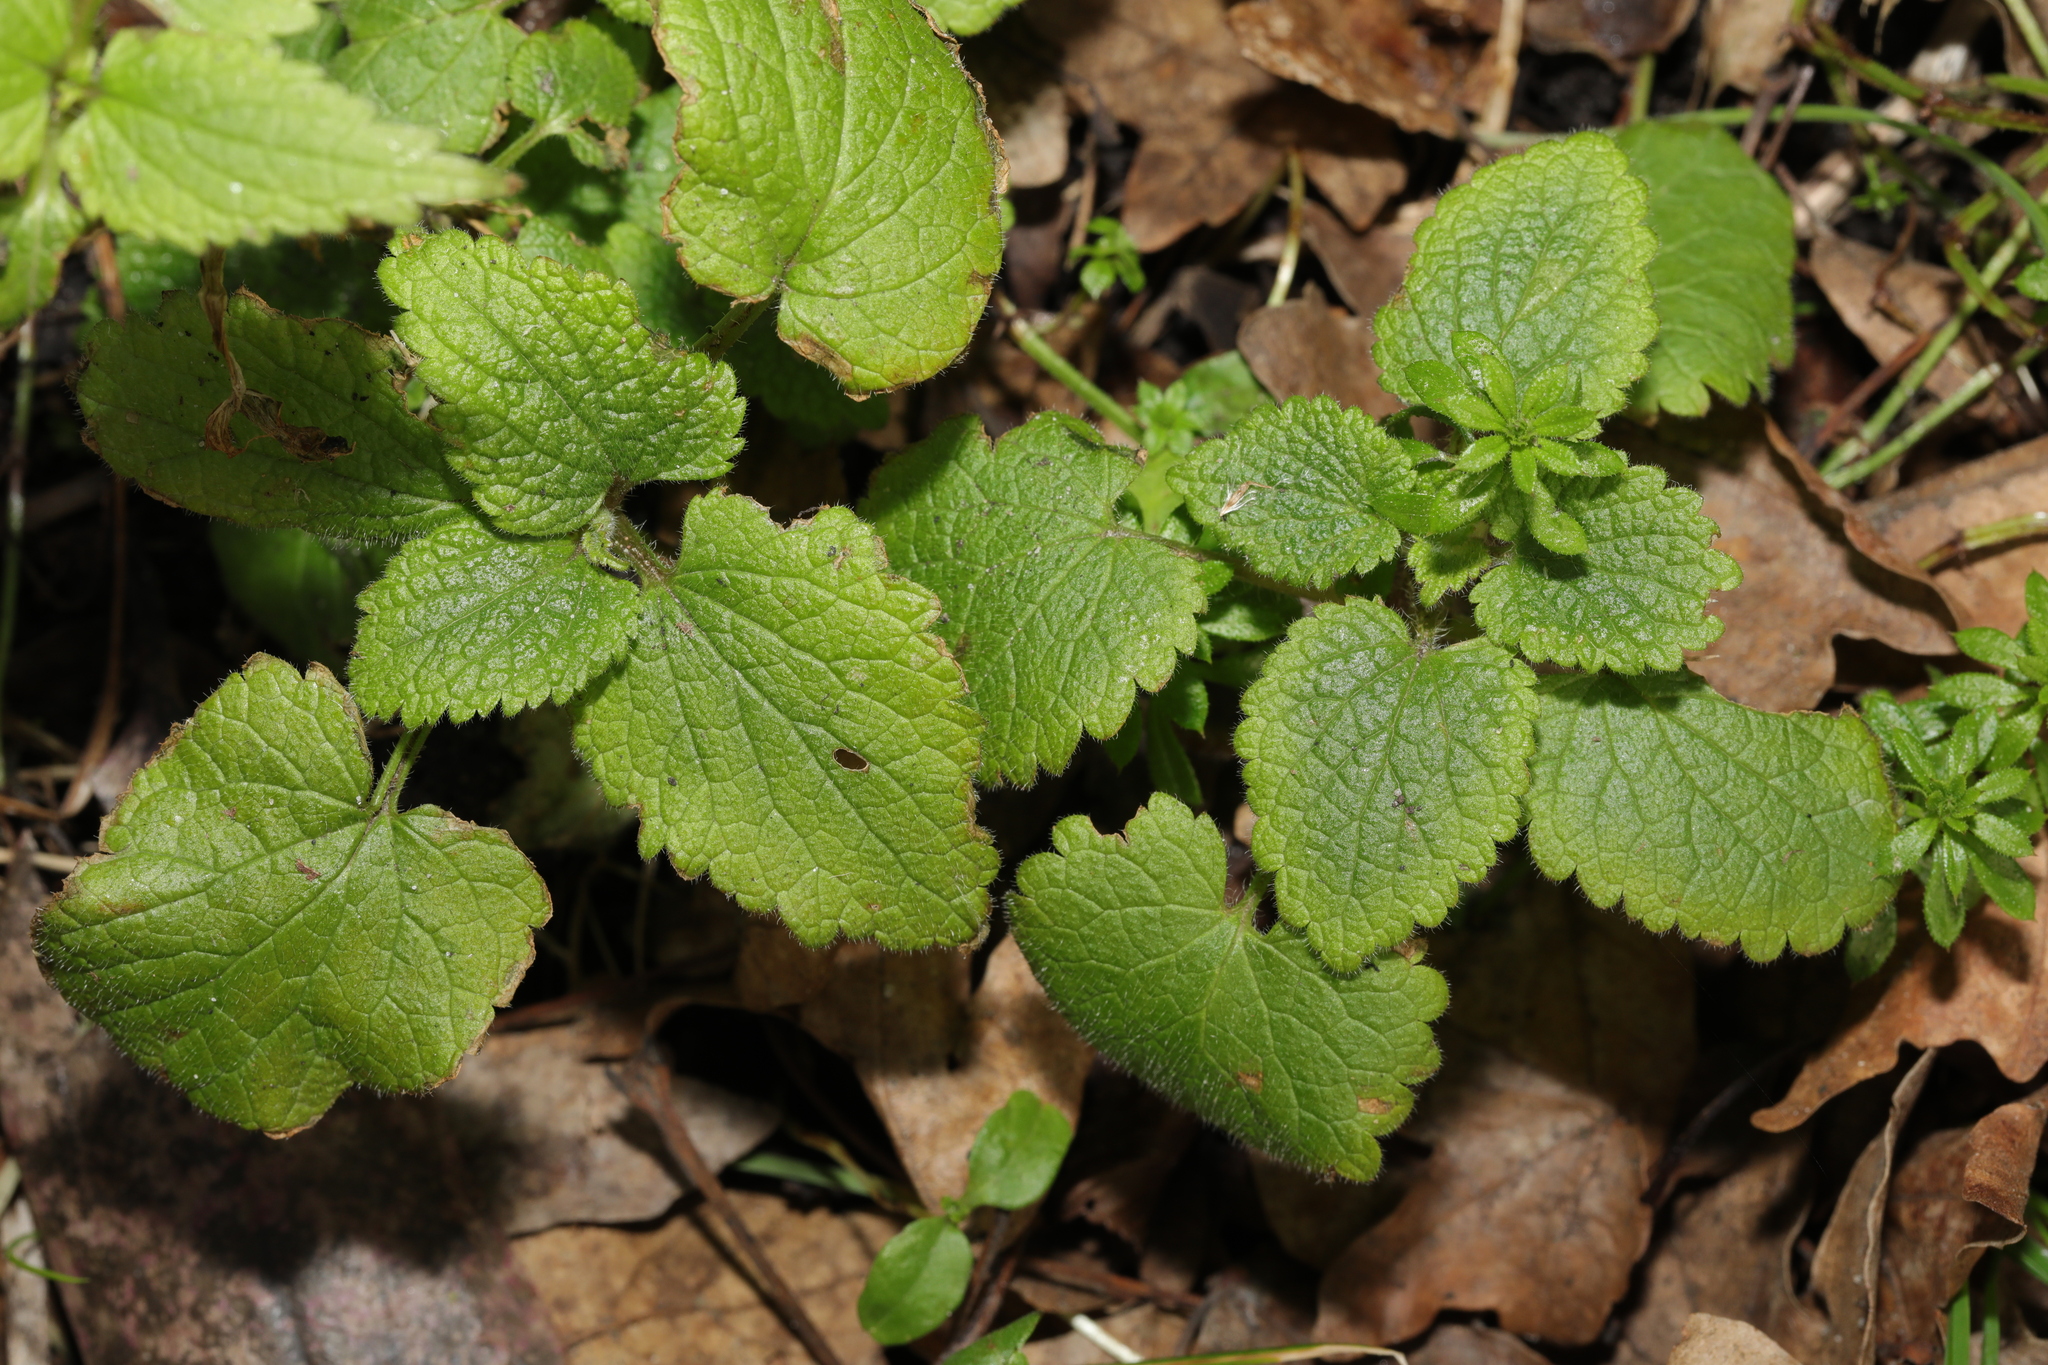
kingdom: Plantae
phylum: Tracheophyta
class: Magnoliopsida
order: Lamiales
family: Lamiaceae
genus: Lamium
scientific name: Lamium album
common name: White dead-nettle
